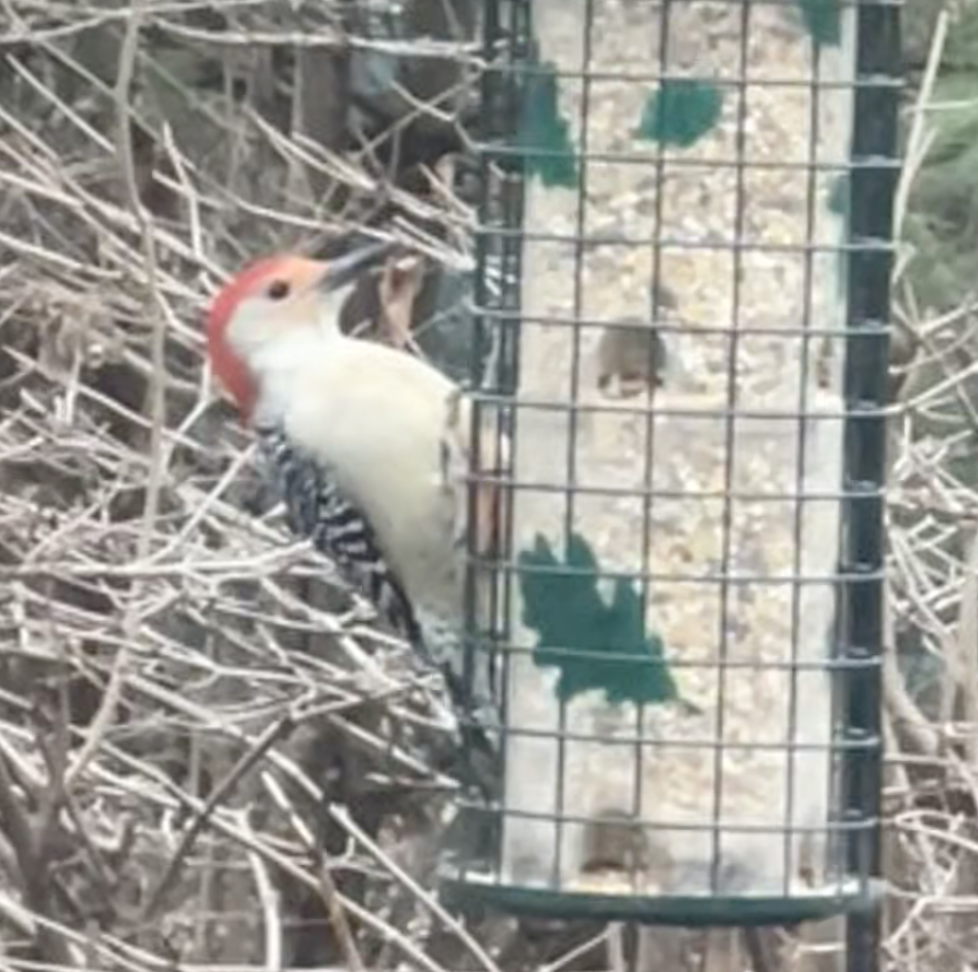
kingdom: Animalia
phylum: Chordata
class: Aves
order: Piciformes
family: Picidae
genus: Melanerpes
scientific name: Melanerpes carolinus
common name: Red-bellied woodpecker
